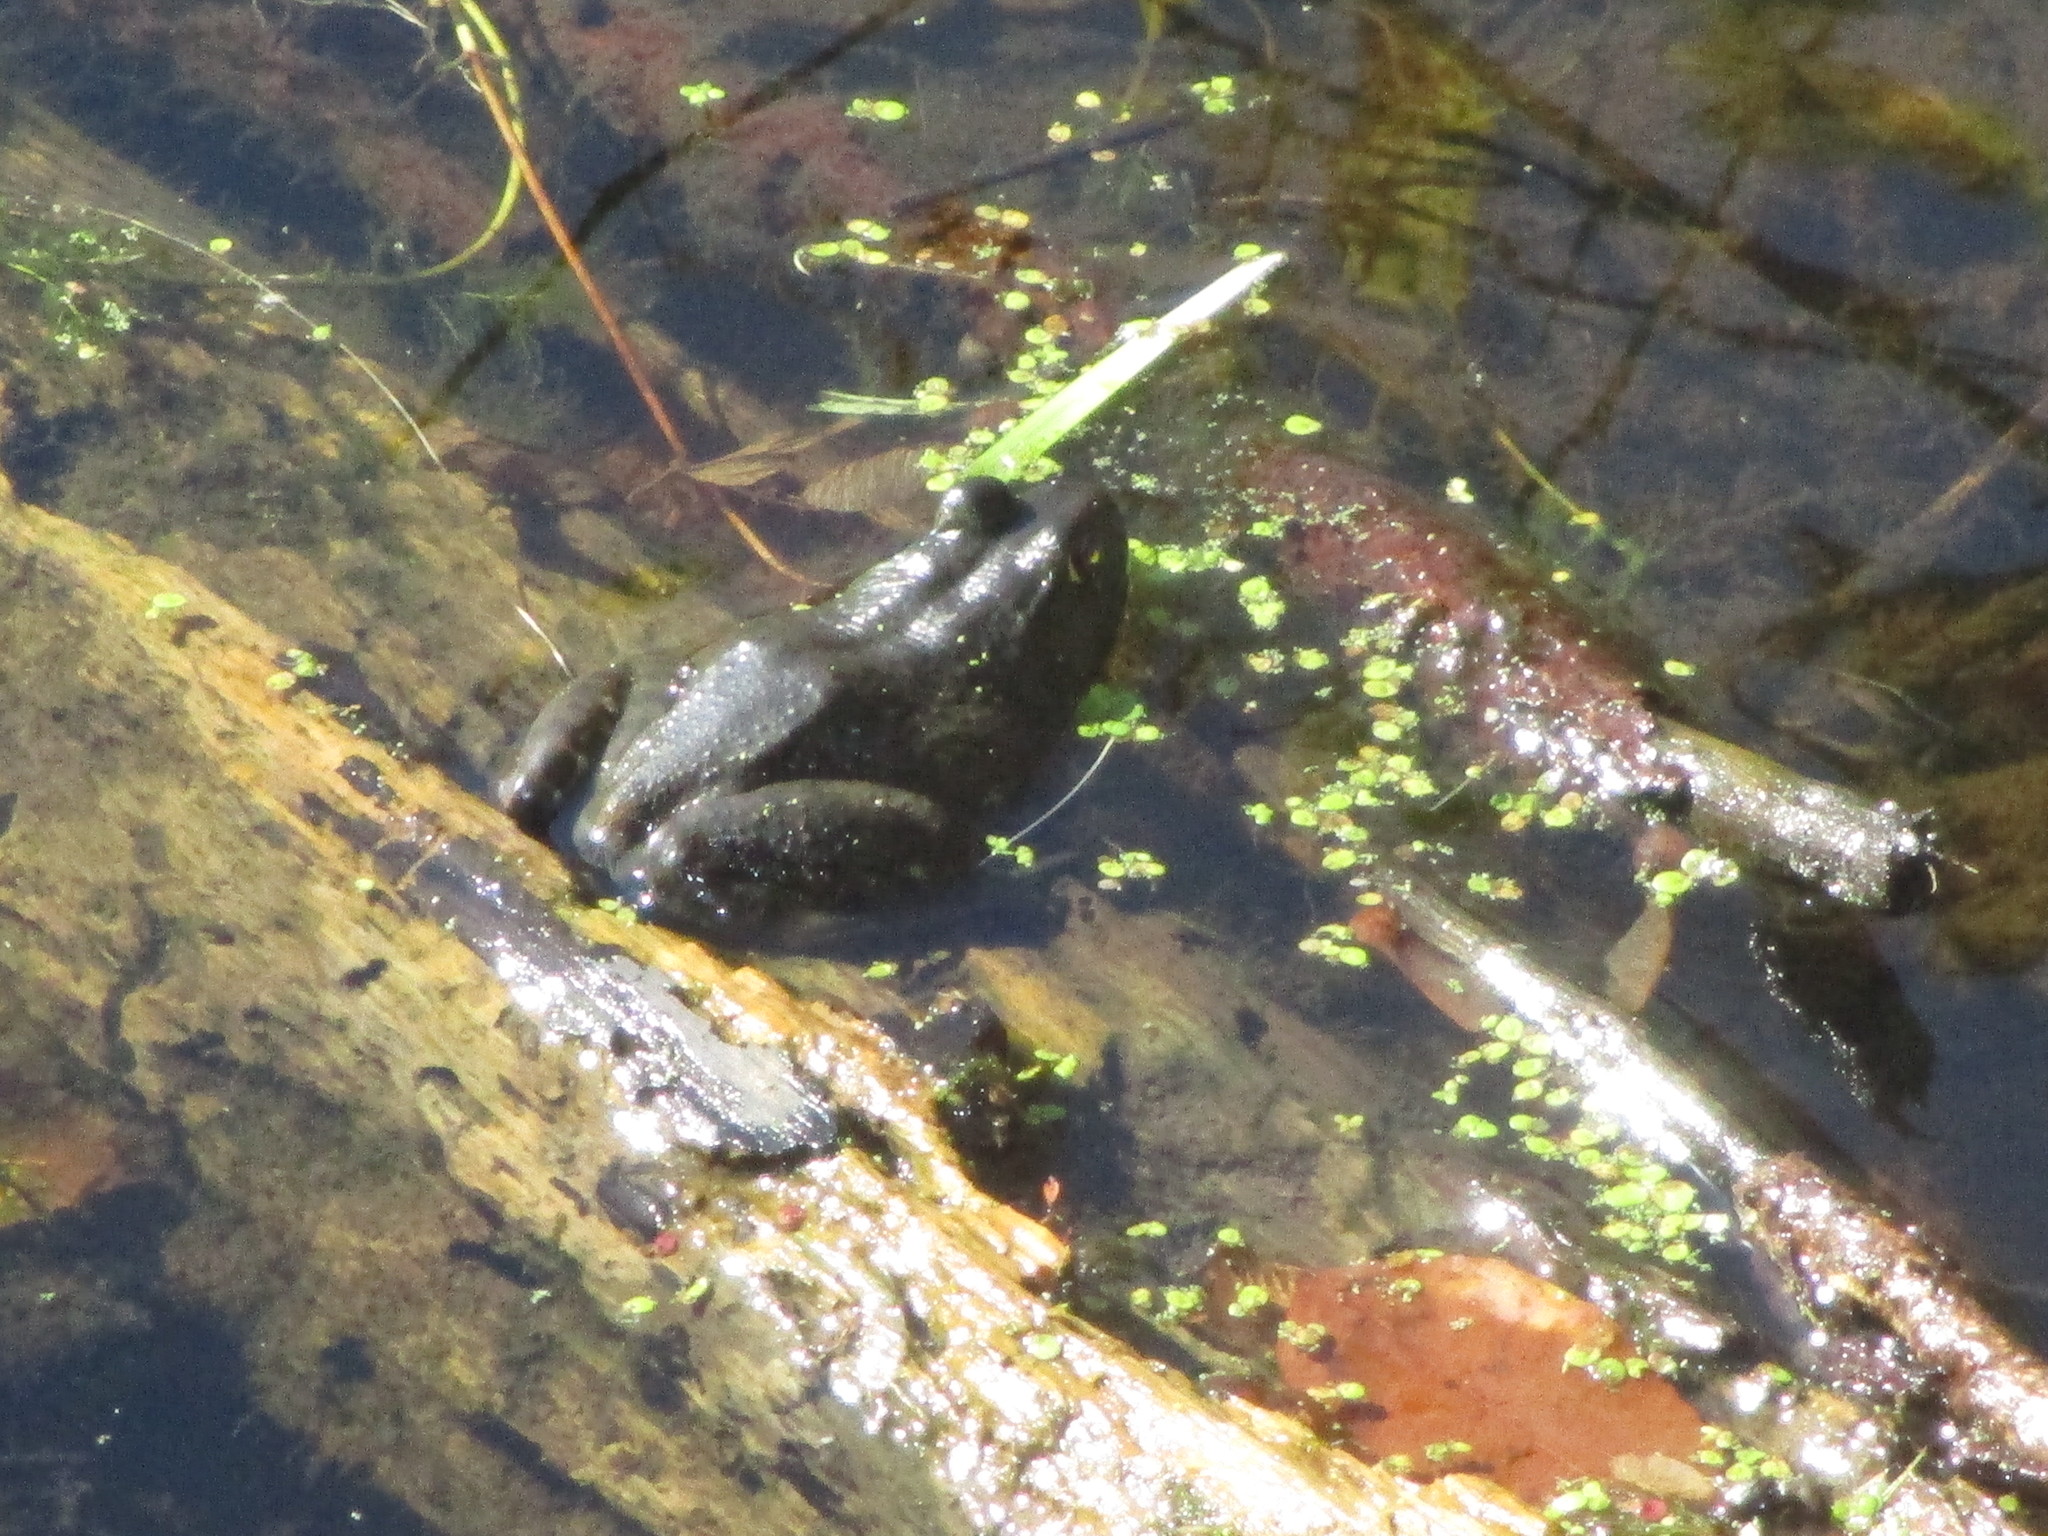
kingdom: Animalia
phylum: Chordata
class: Amphibia
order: Anura
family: Ranidae
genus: Lithobates
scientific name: Lithobates catesbeianus
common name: American bullfrog
